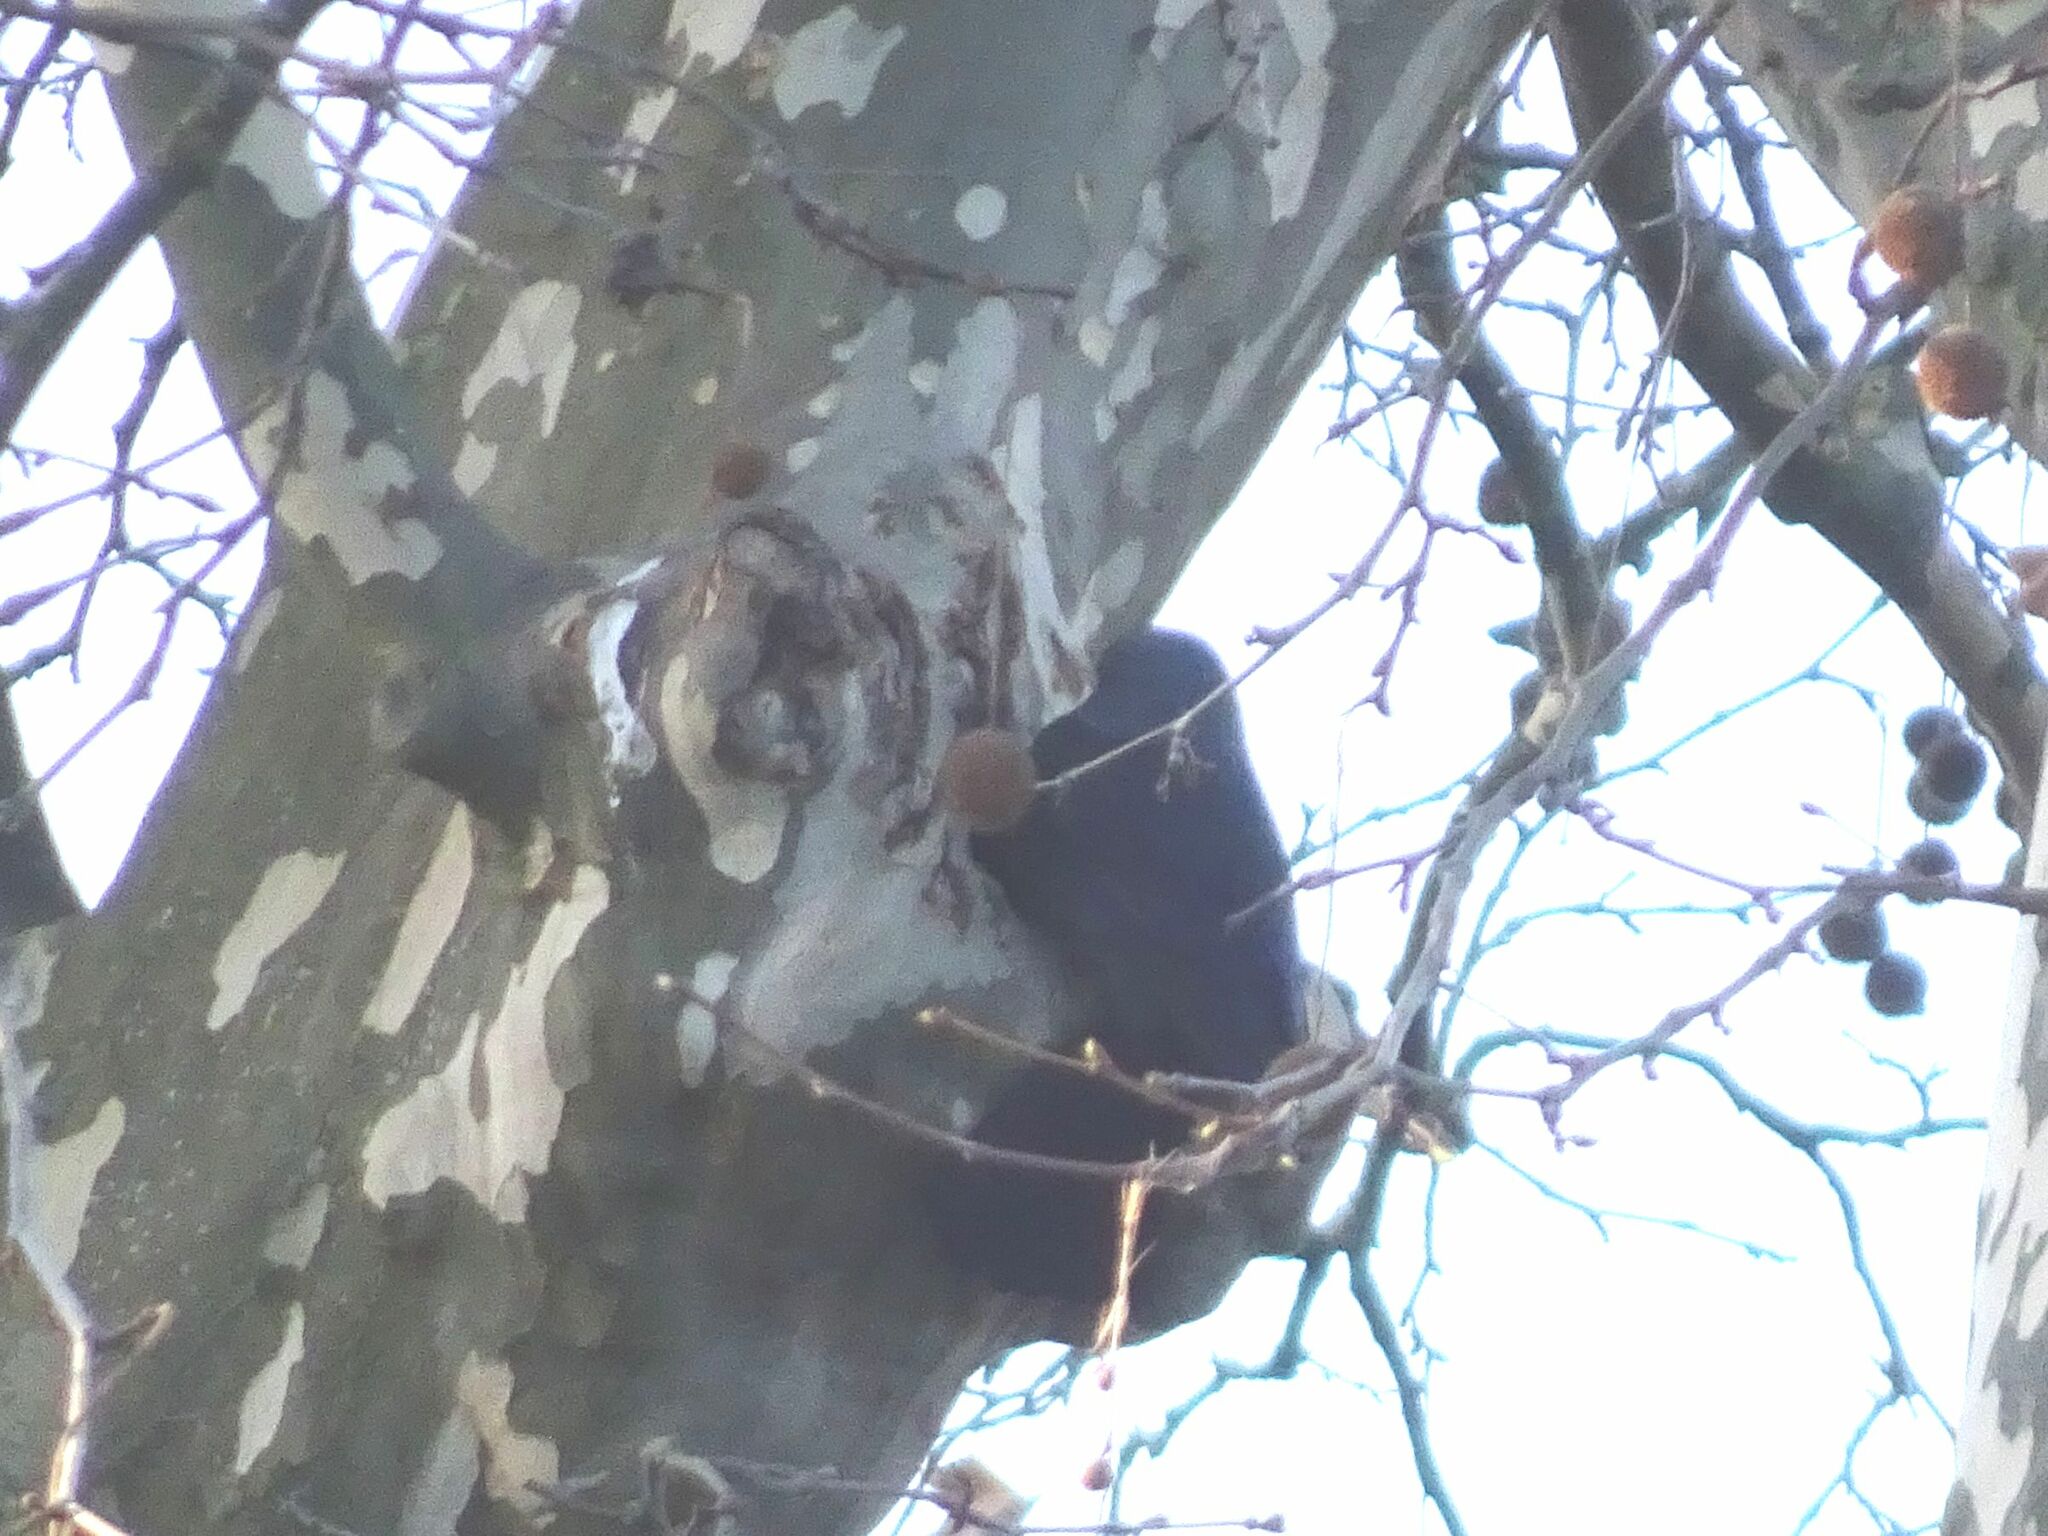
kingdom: Animalia
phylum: Chordata
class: Aves
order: Passeriformes
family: Corvidae
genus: Coloeus
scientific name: Coloeus monedula
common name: Western jackdaw
